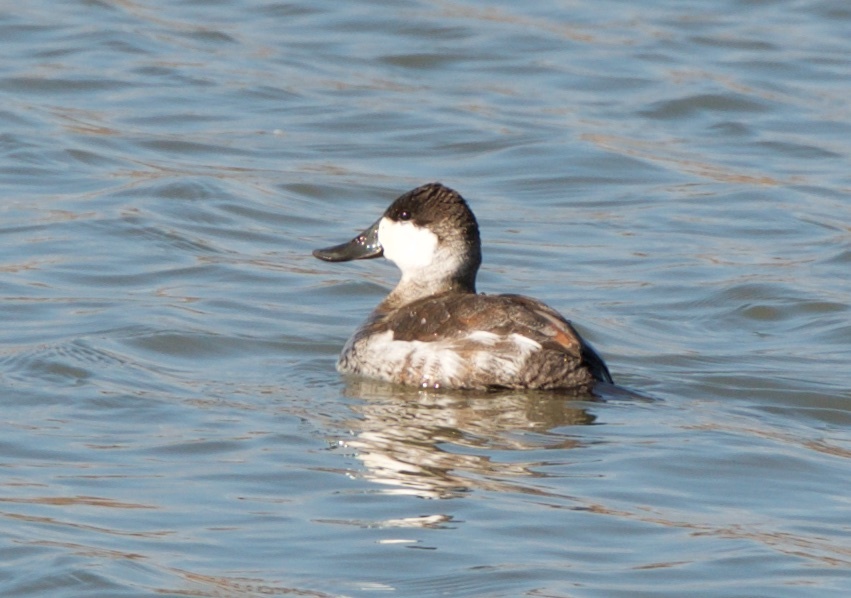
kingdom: Animalia
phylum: Chordata
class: Aves
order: Anseriformes
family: Anatidae
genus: Oxyura
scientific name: Oxyura jamaicensis
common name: Ruddy duck
